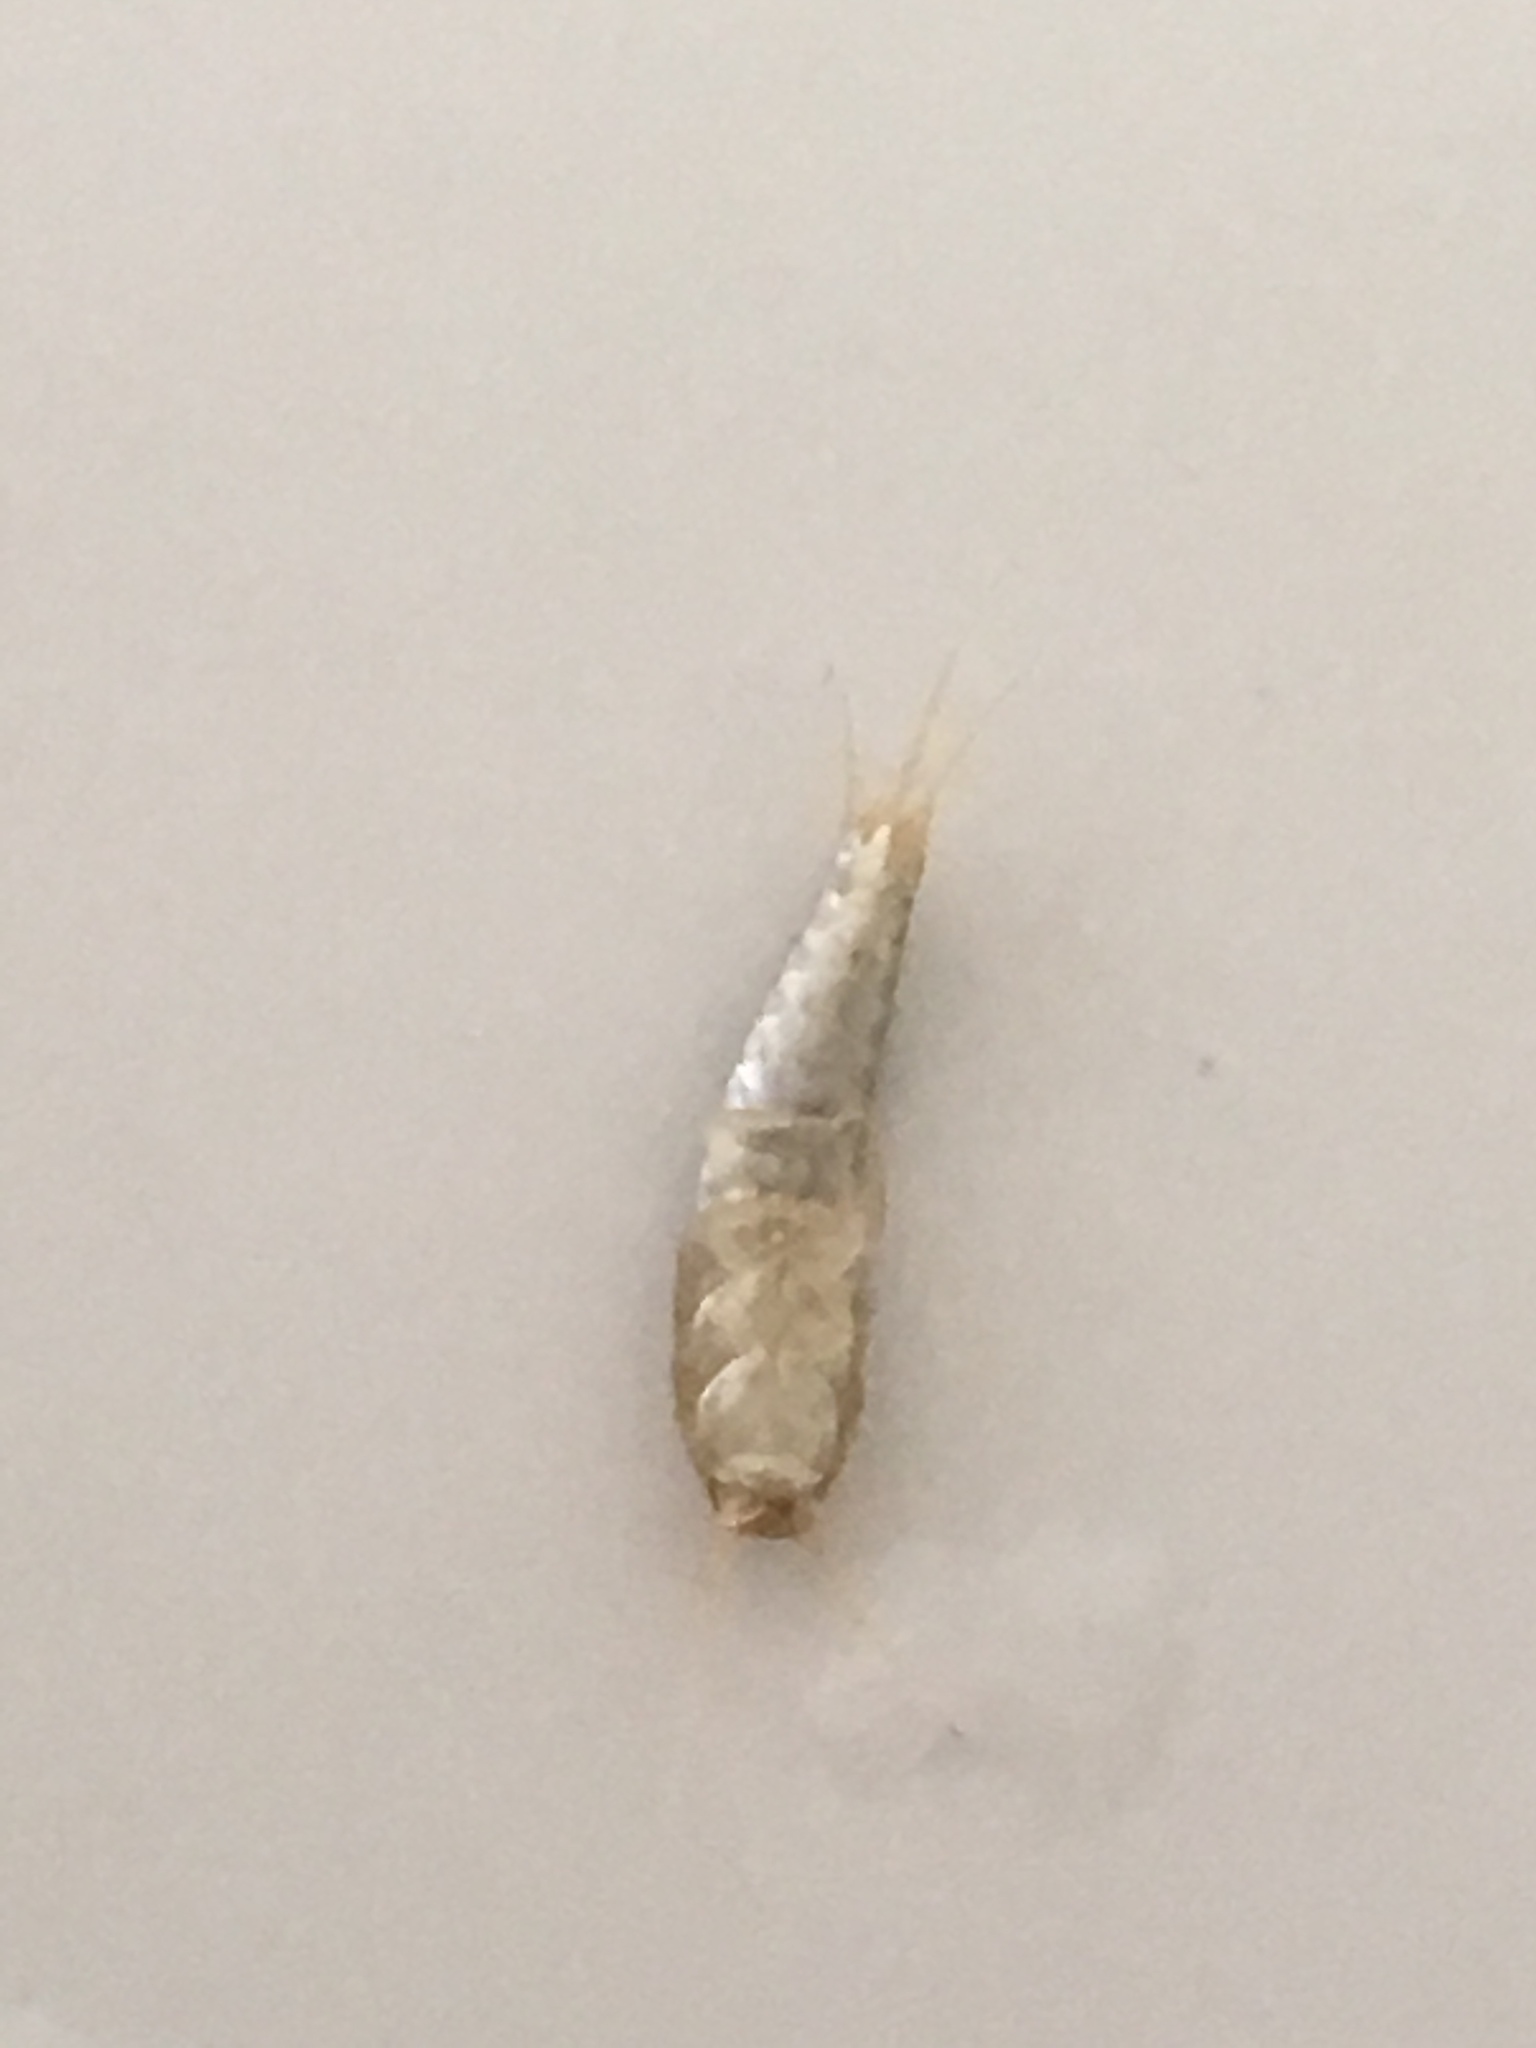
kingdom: Animalia
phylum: Arthropoda
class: Insecta
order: Zygentoma
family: Lepismatidae
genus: Lepisma
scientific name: Lepisma saccharinum
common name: Silverfish
